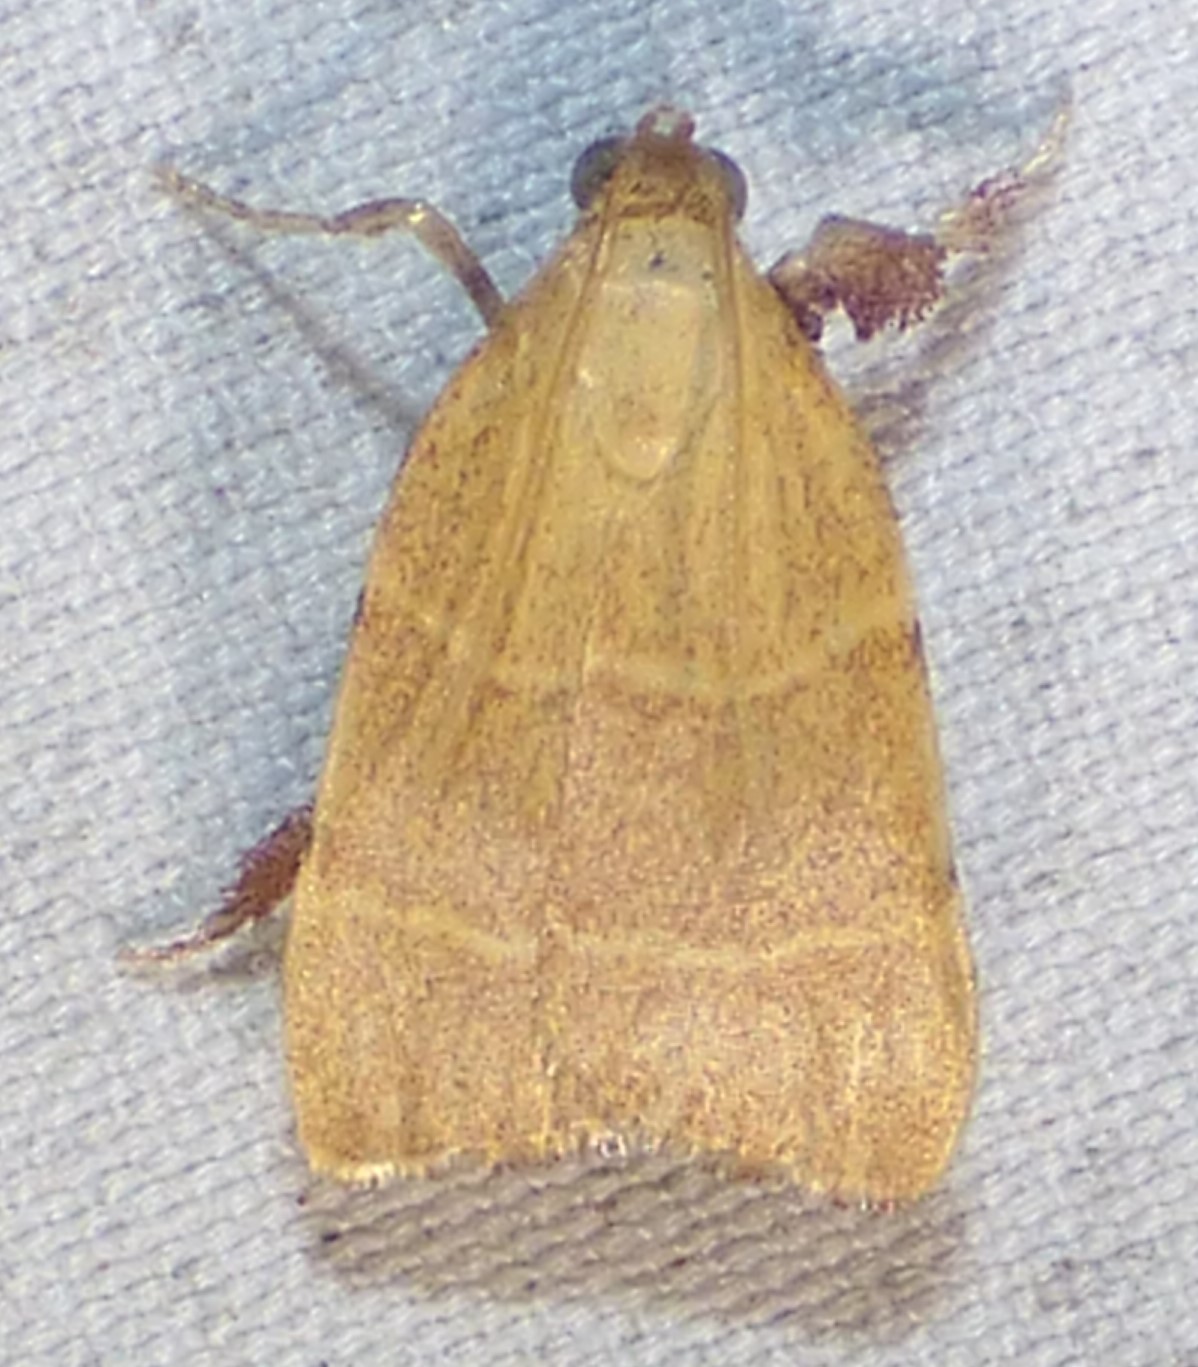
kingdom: Animalia
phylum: Arthropoda
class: Insecta
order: Lepidoptera
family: Pyralidae
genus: Parachma
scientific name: Parachma ochracealis
